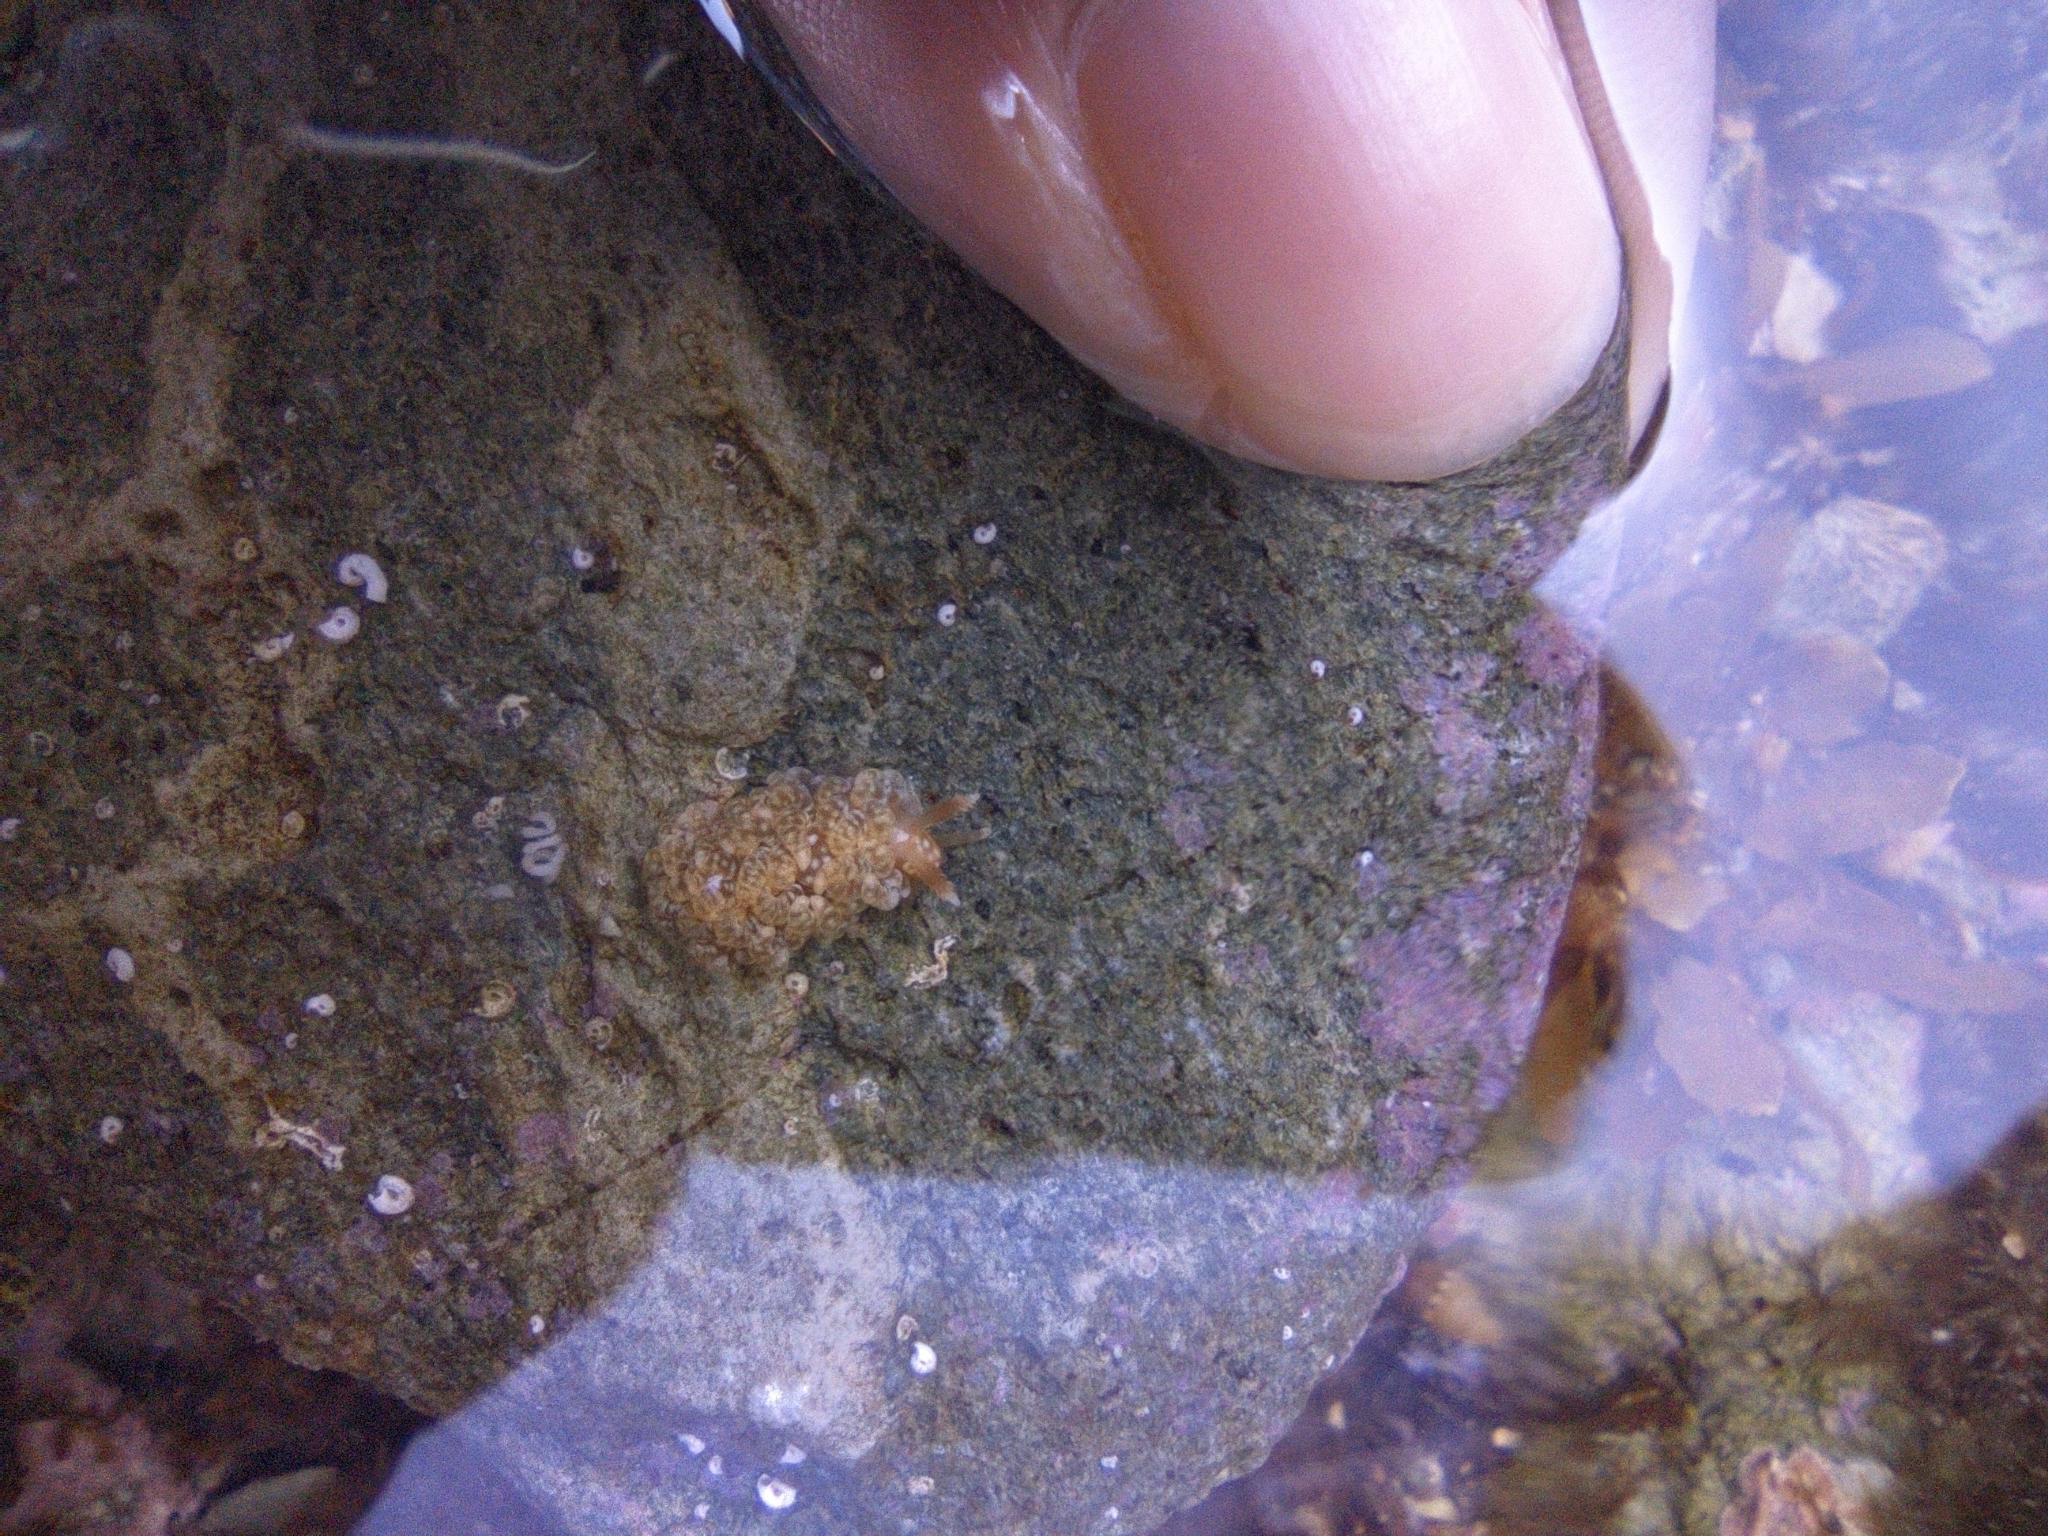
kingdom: Animalia
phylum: Mollusca
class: Gastropoda
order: Nudibranchia
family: Aeolidiidae
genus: Spurilla
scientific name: Spurilla braziliana
